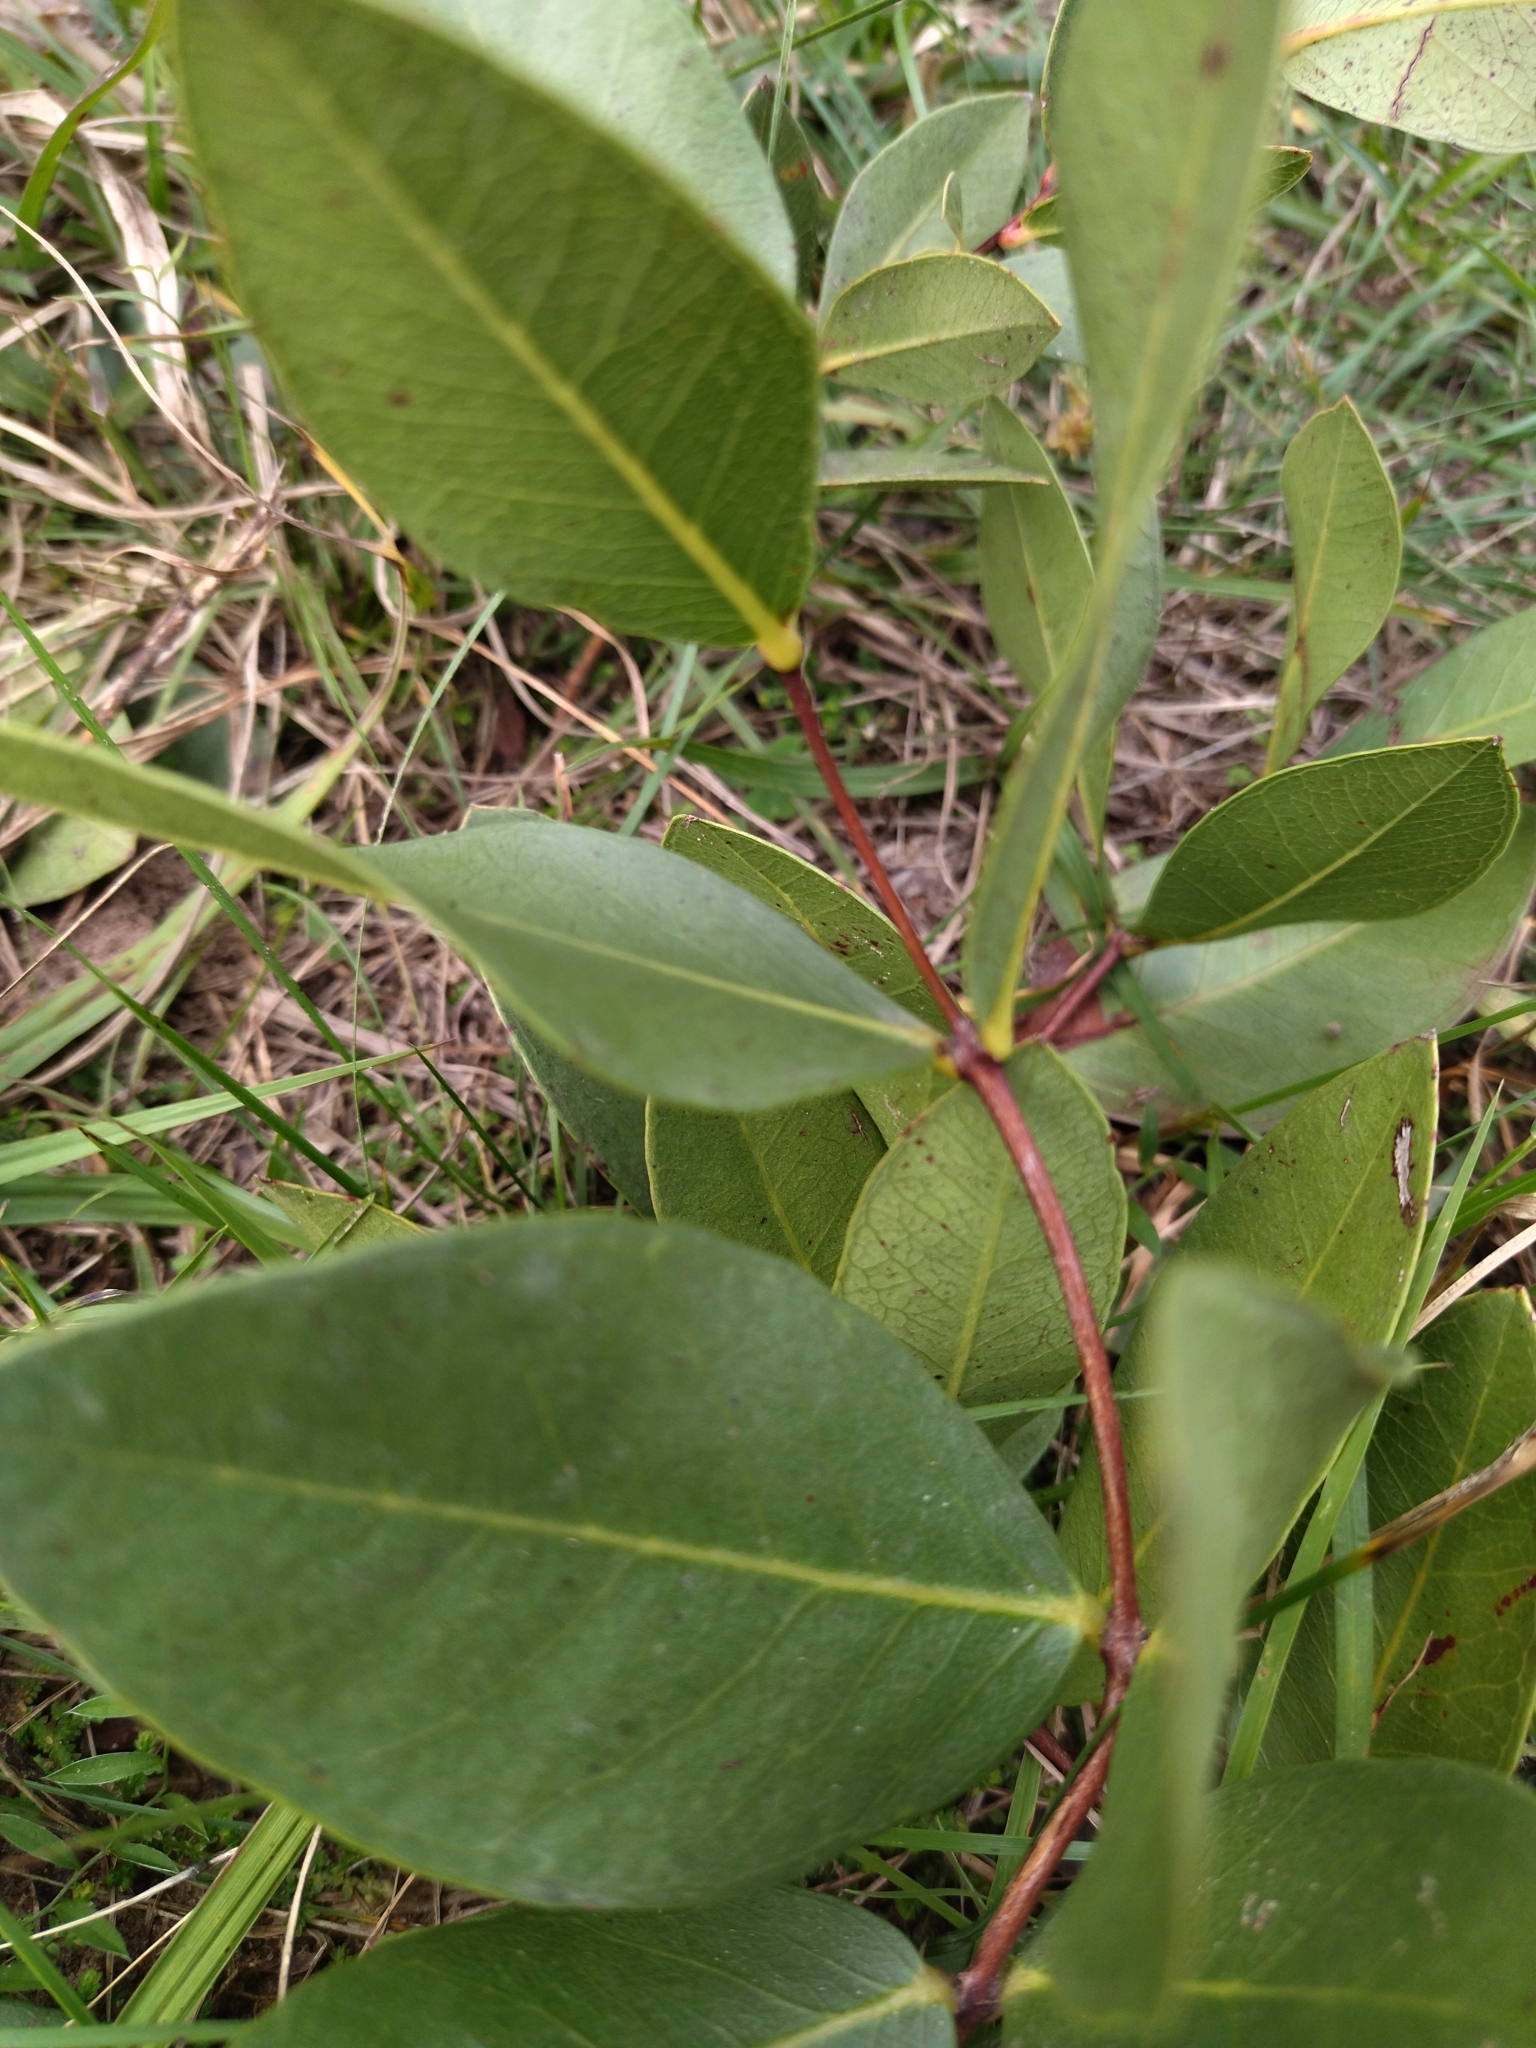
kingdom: Plantae
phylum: Tracheophyta
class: Magnoliopsida
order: Myrtales
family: Myrtaceae
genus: Psidium
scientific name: Psidium salutare
